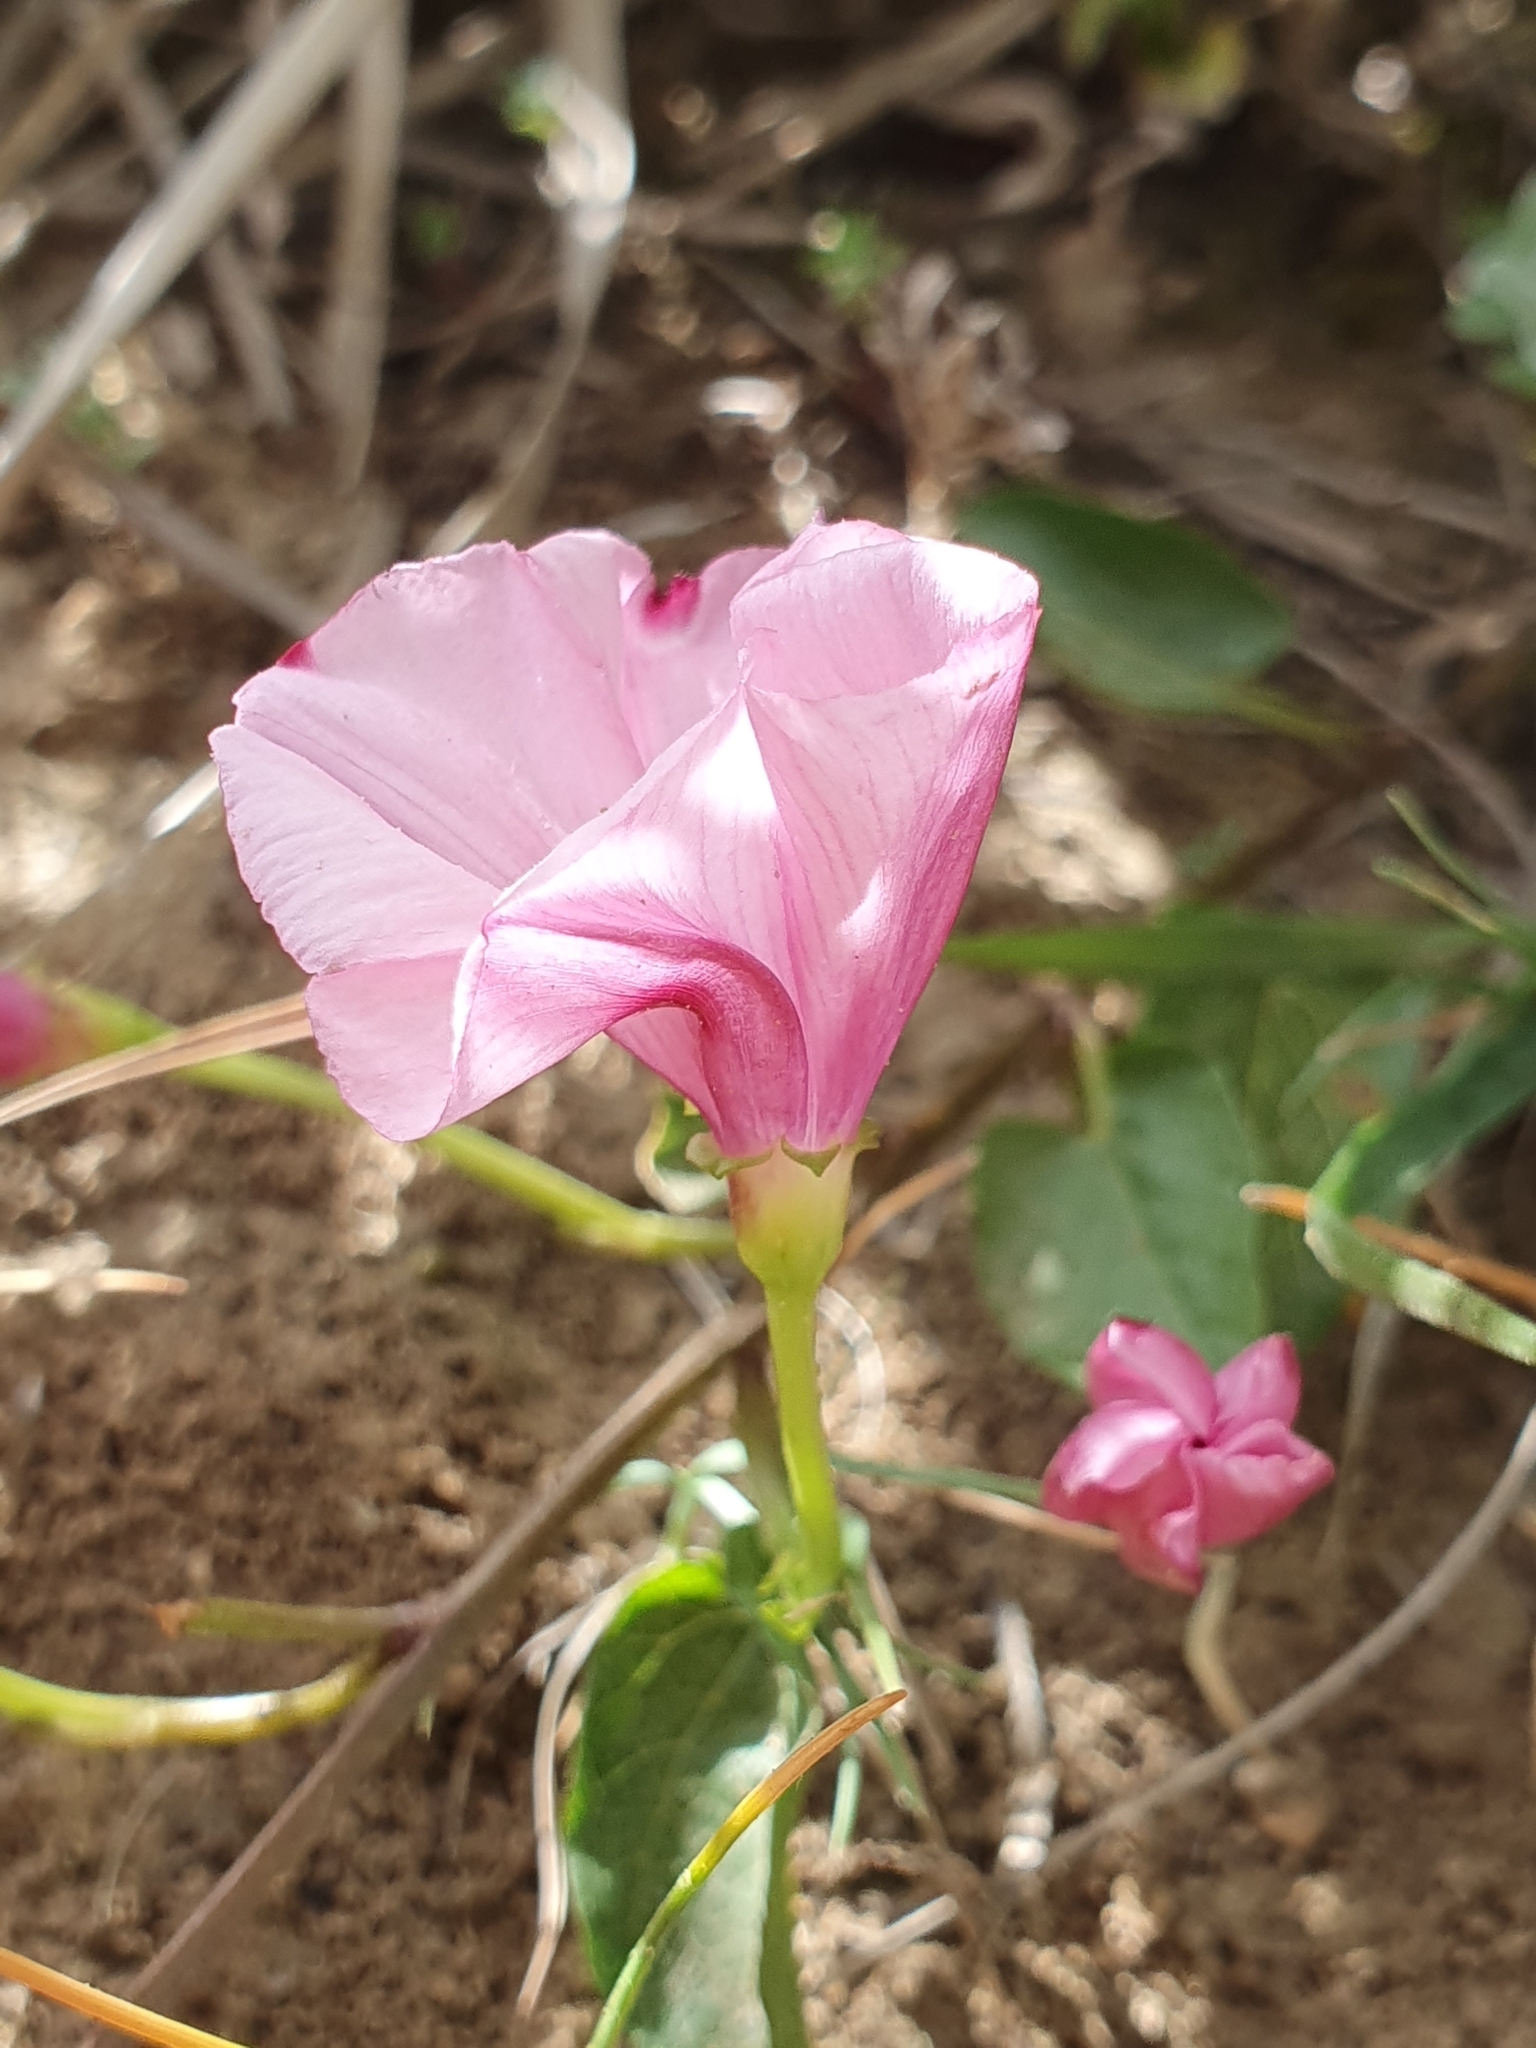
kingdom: Plantae
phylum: Tracheophyta
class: Magnoliopsida
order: Solanales
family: Convolvulaceae
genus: Convolvulus
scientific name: Convolvulus durandoi
